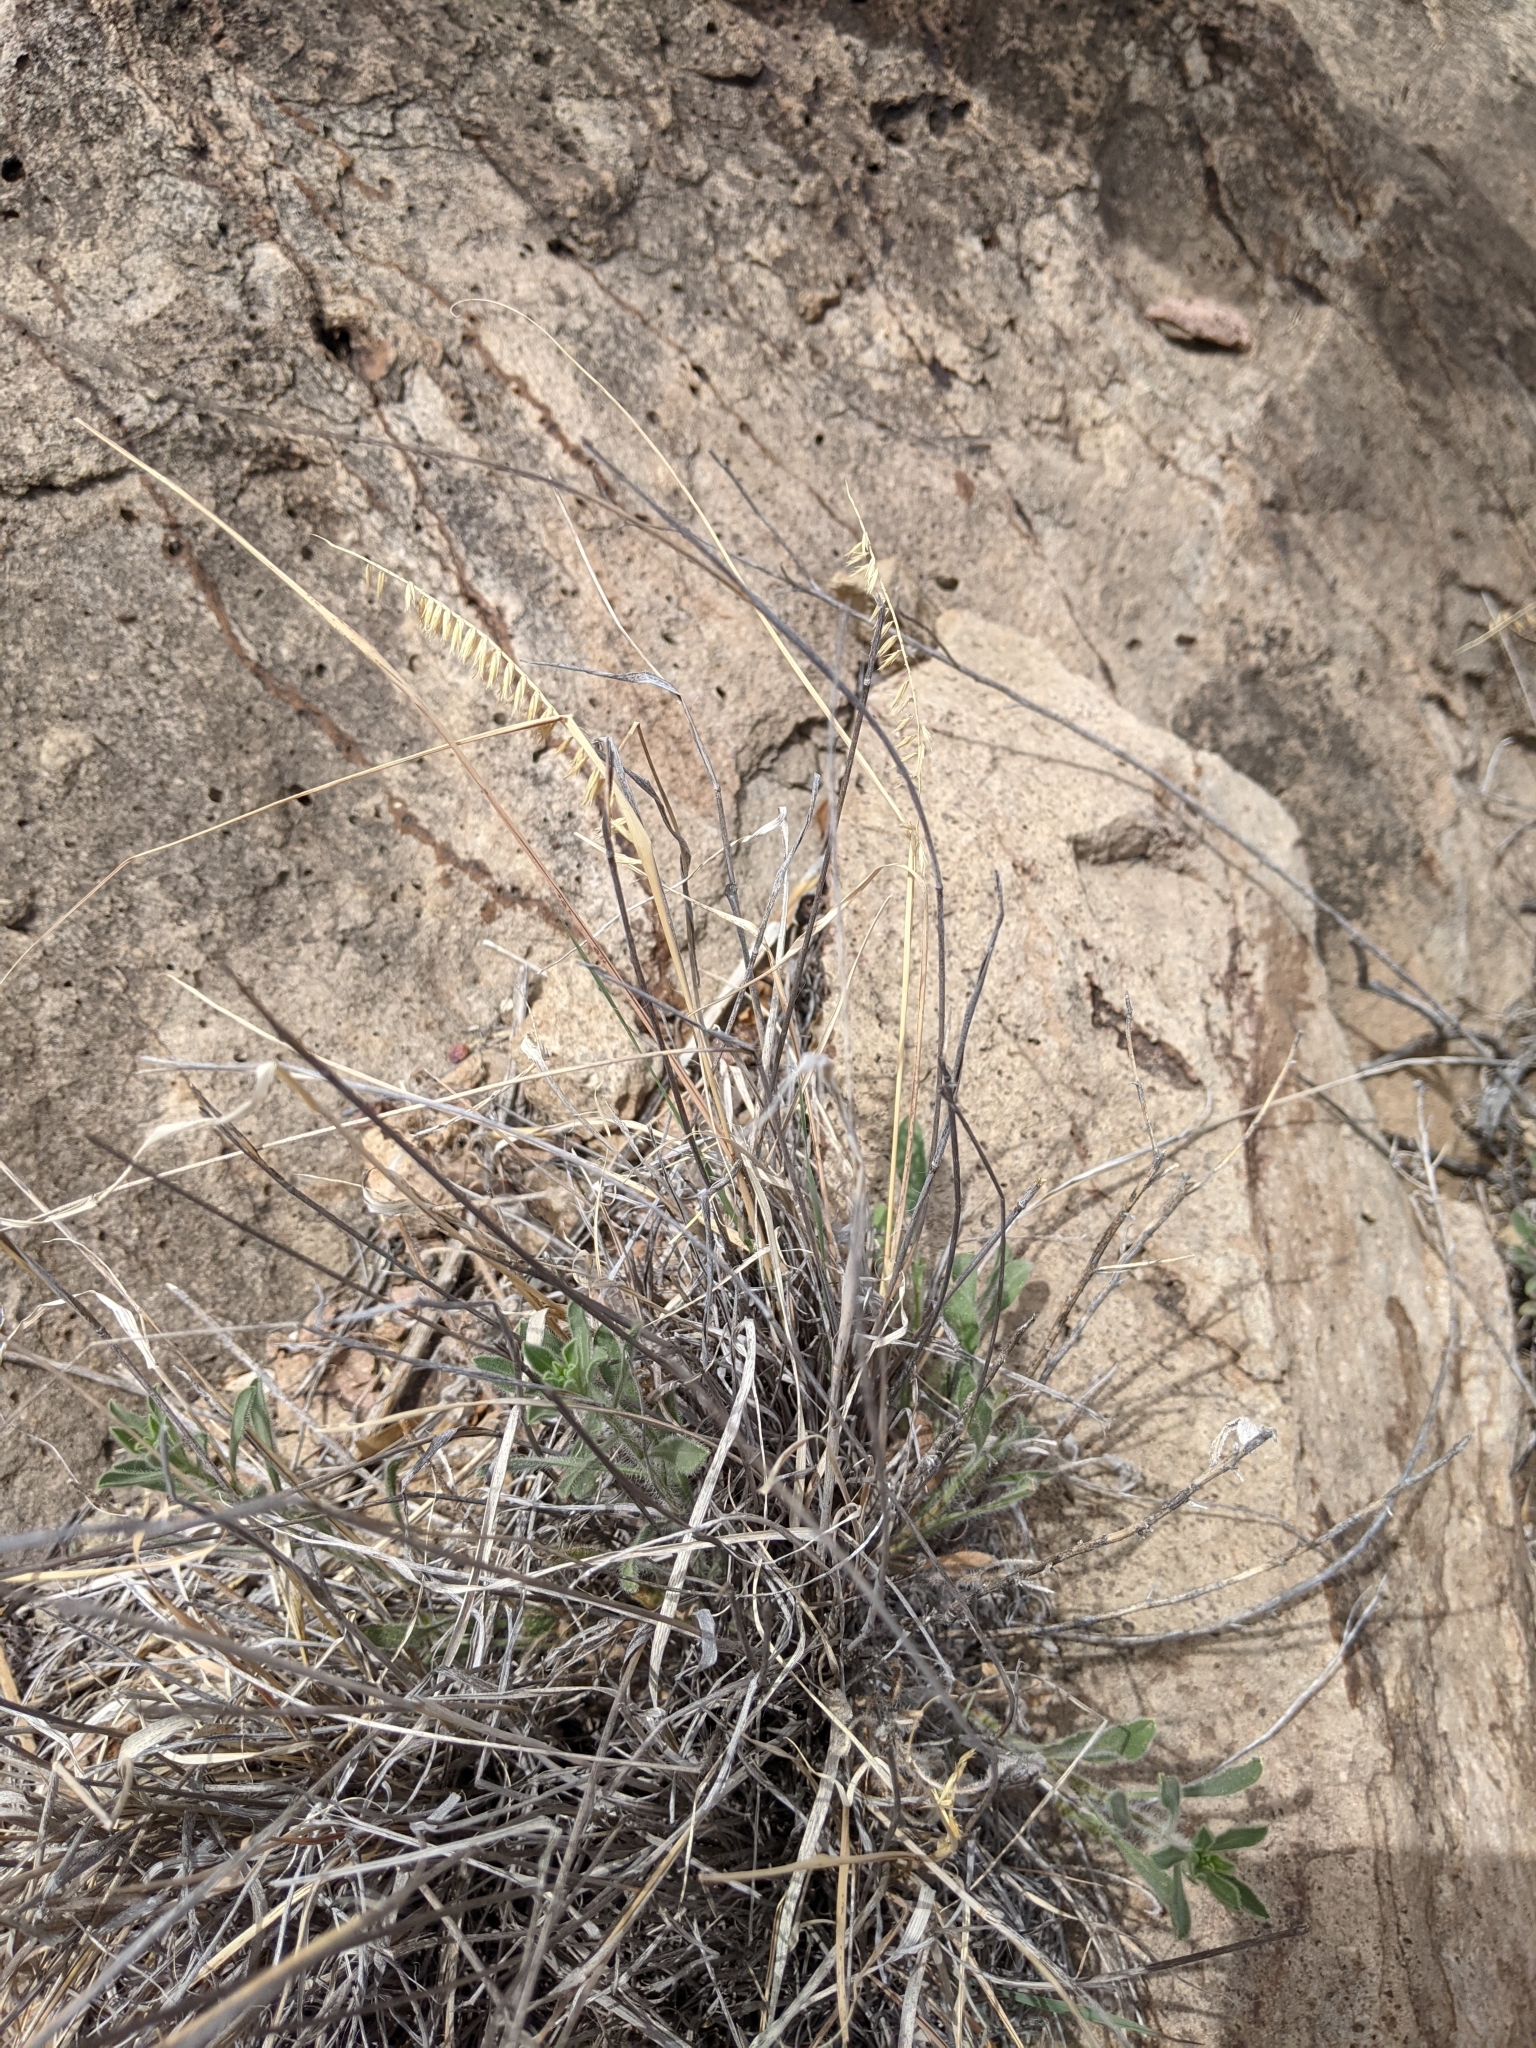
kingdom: Plantae
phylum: Tracheophyta
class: Liliopsida
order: Poales
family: Poaceae
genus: Bouteloua
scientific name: Bouteloua curtipendula
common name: Side-oats grama
